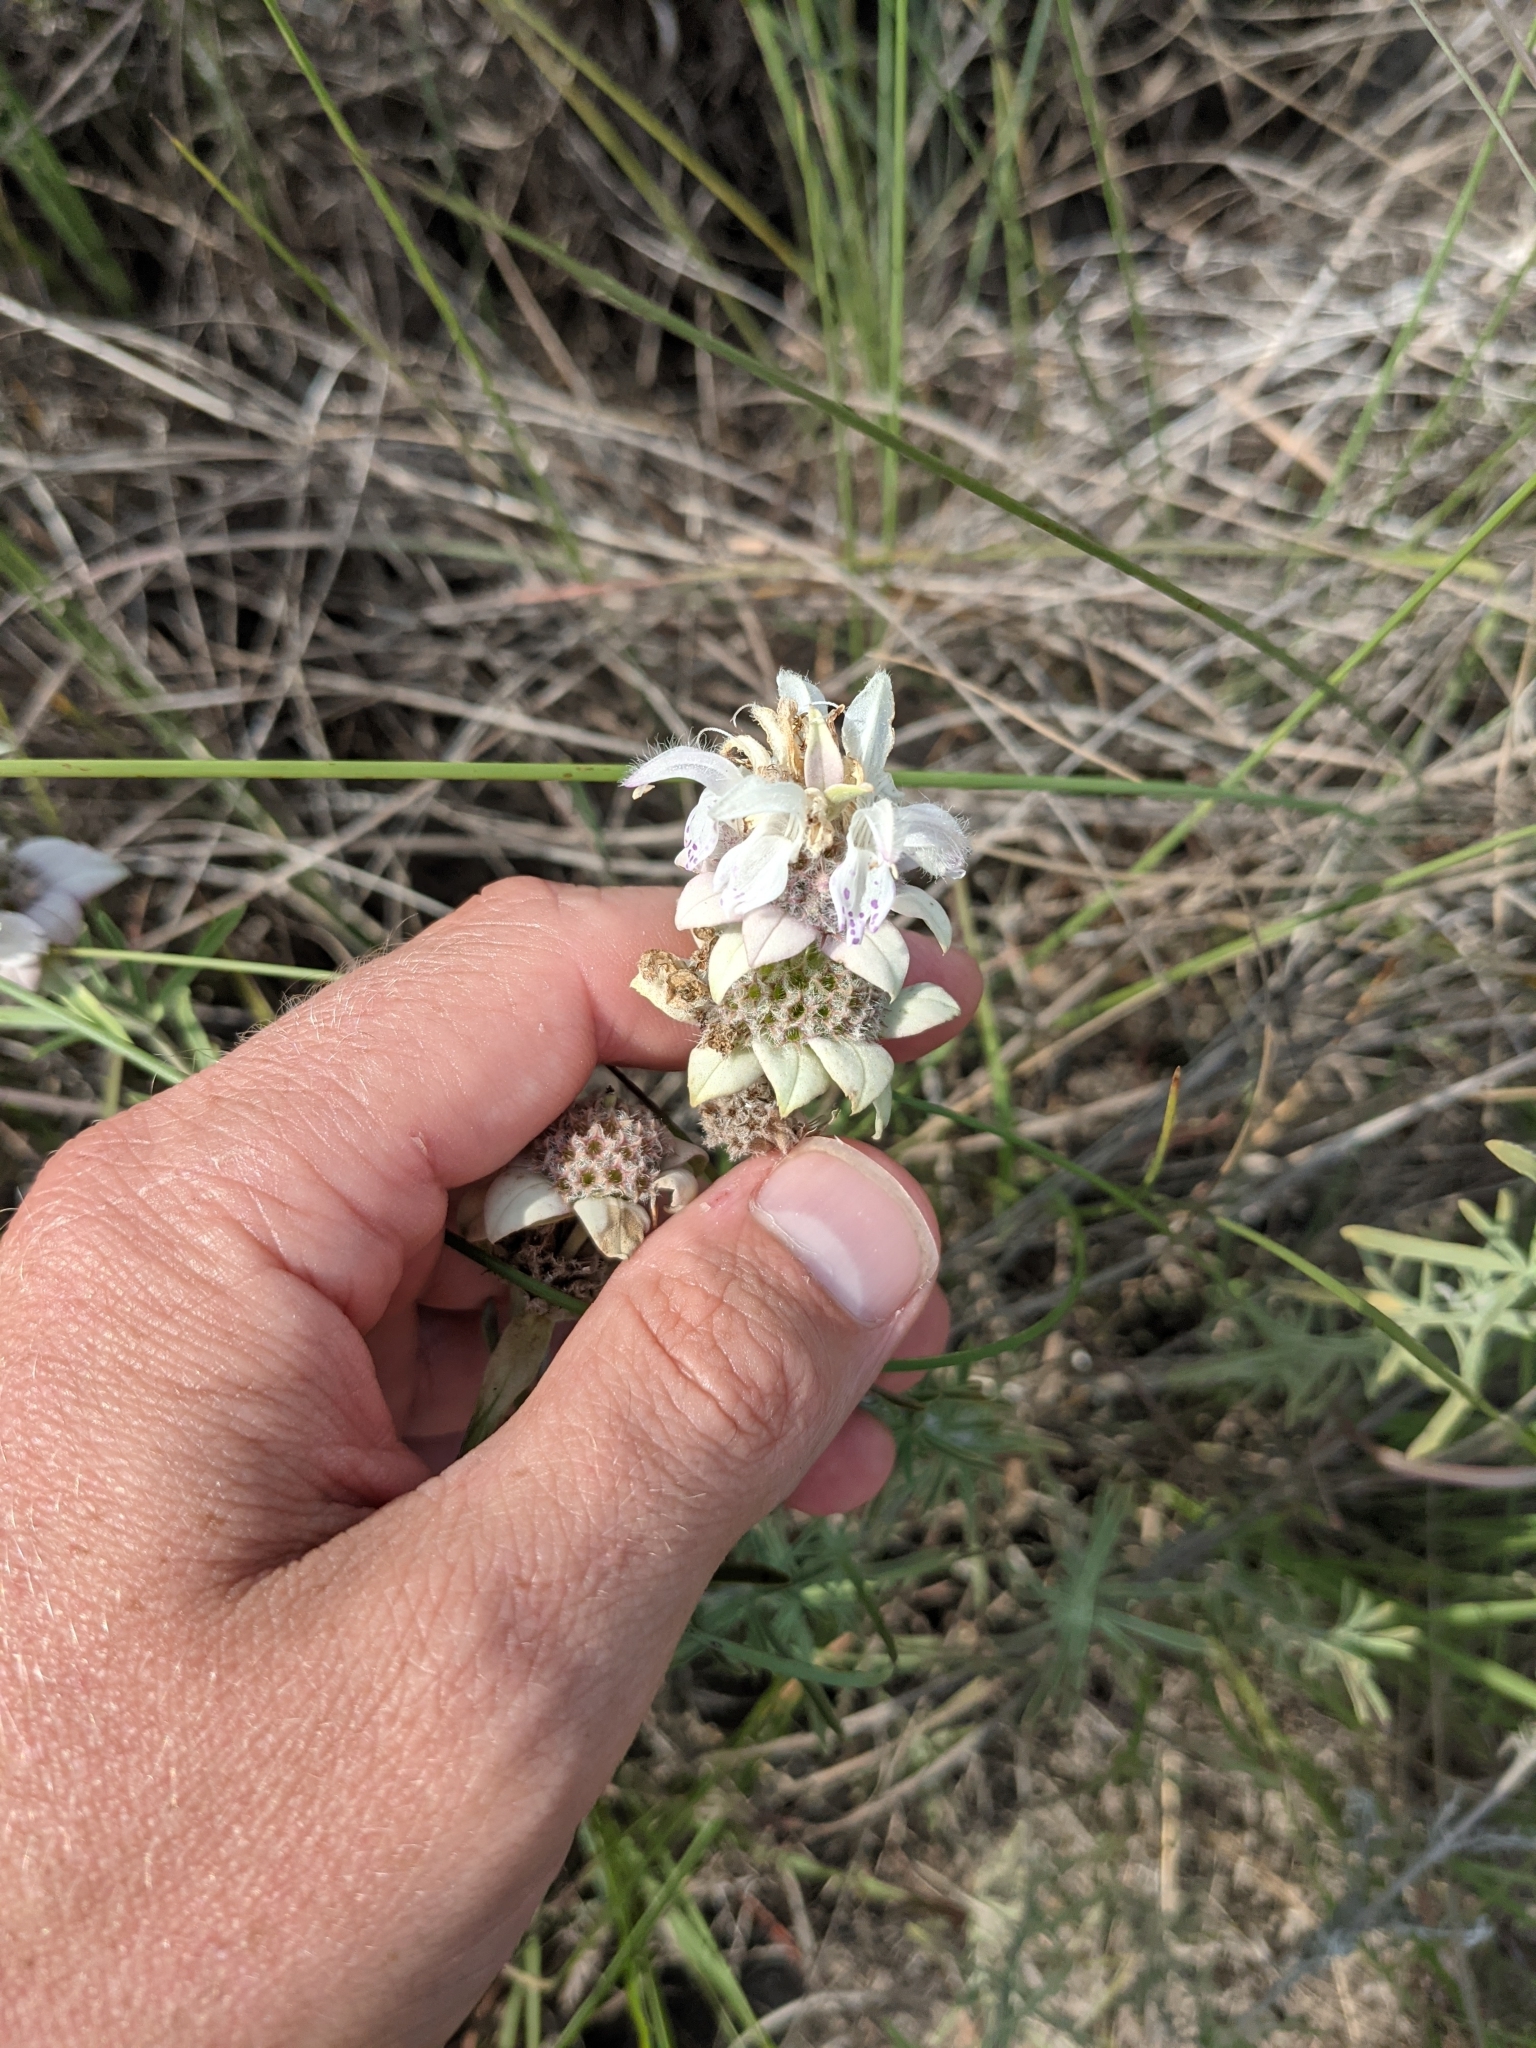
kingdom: Plantae
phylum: Tracheophyta
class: Magnoliopsida
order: Lamiales
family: Lamiaceae
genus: Monarda
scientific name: Monarda fruticulosa
